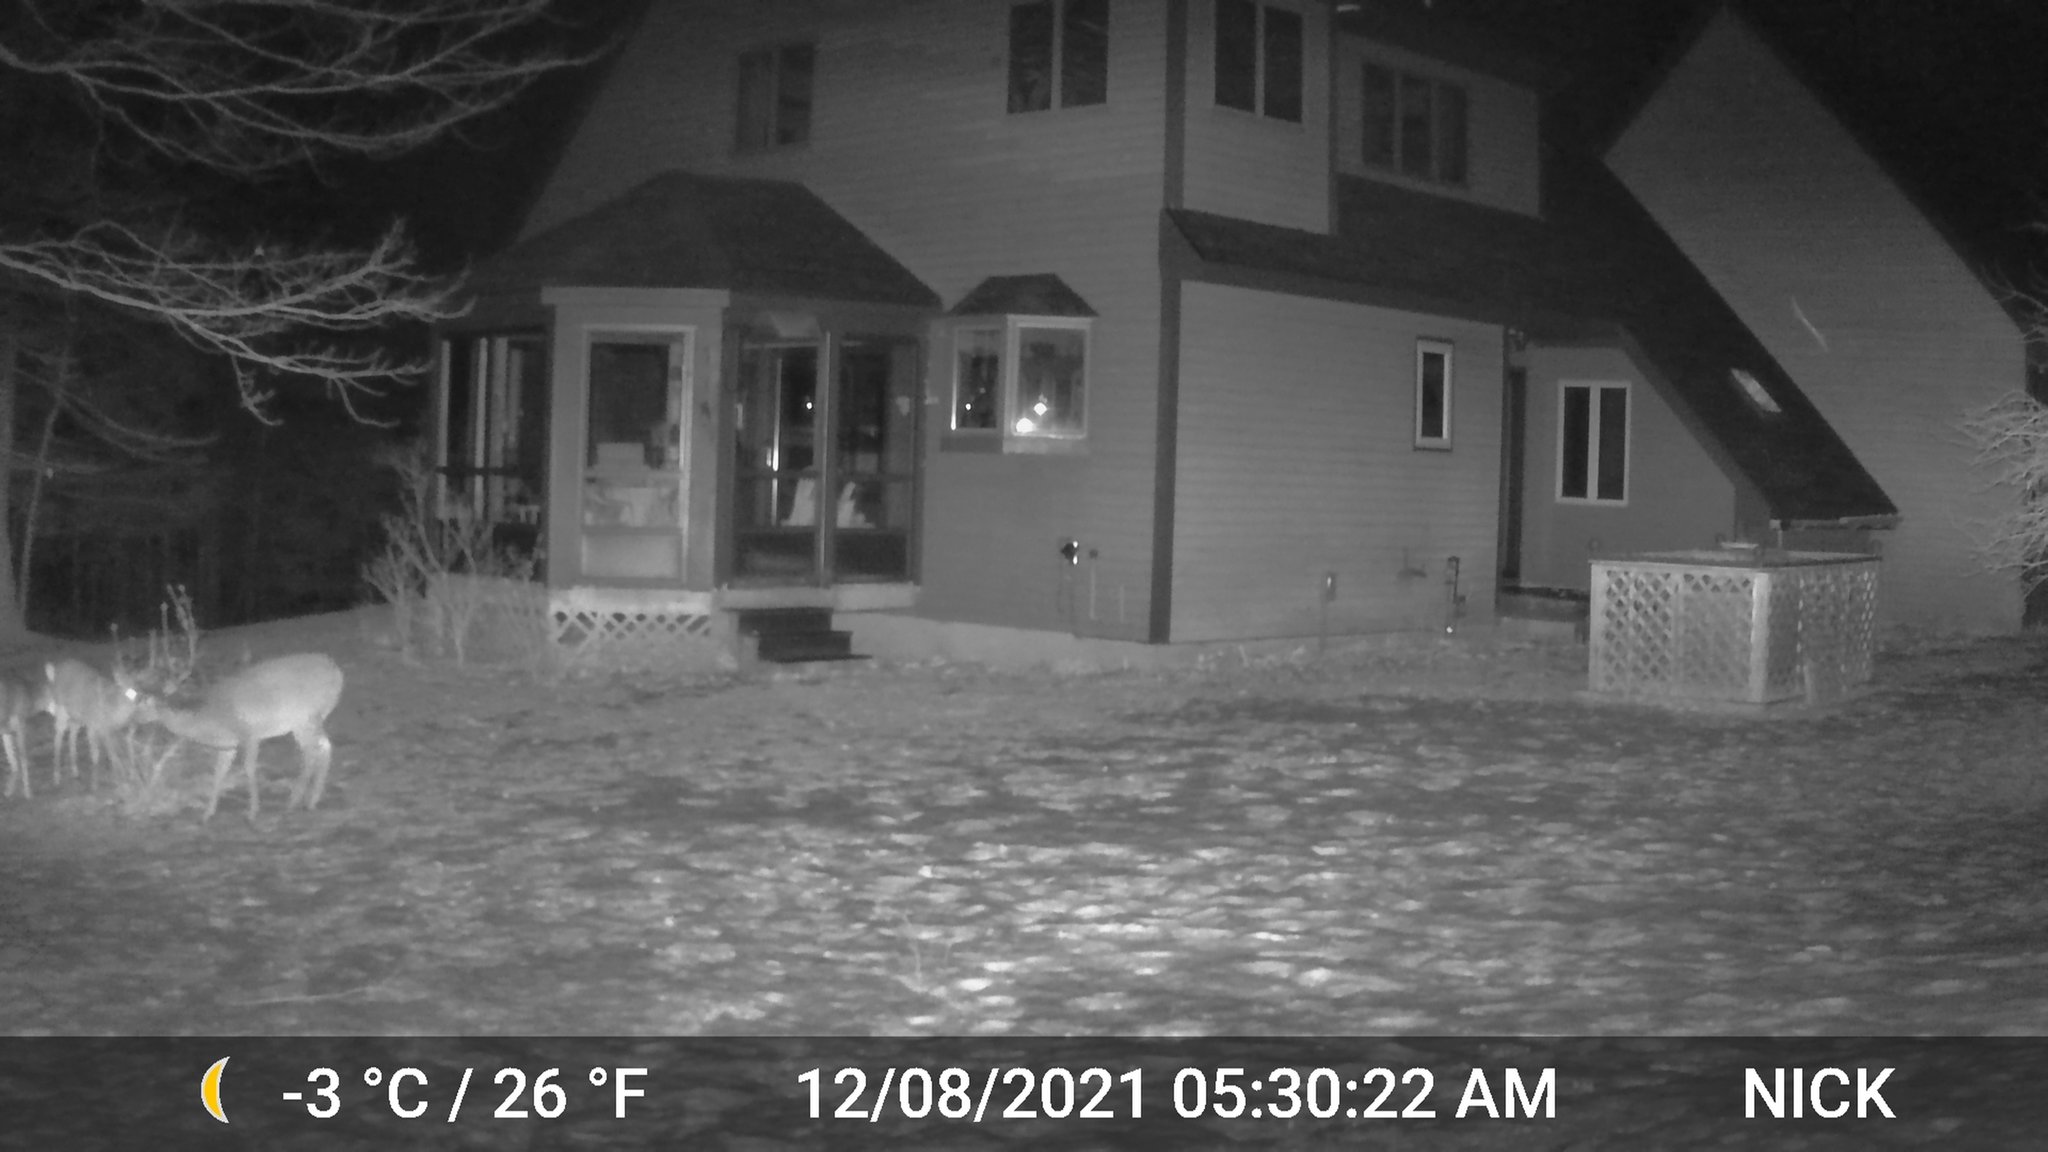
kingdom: Animalia
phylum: Chordata
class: Mammalia
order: Artiodactyla
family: Cervidae
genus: Odocoileus
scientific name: Odocoileus virginianus
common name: White-tailed deer
